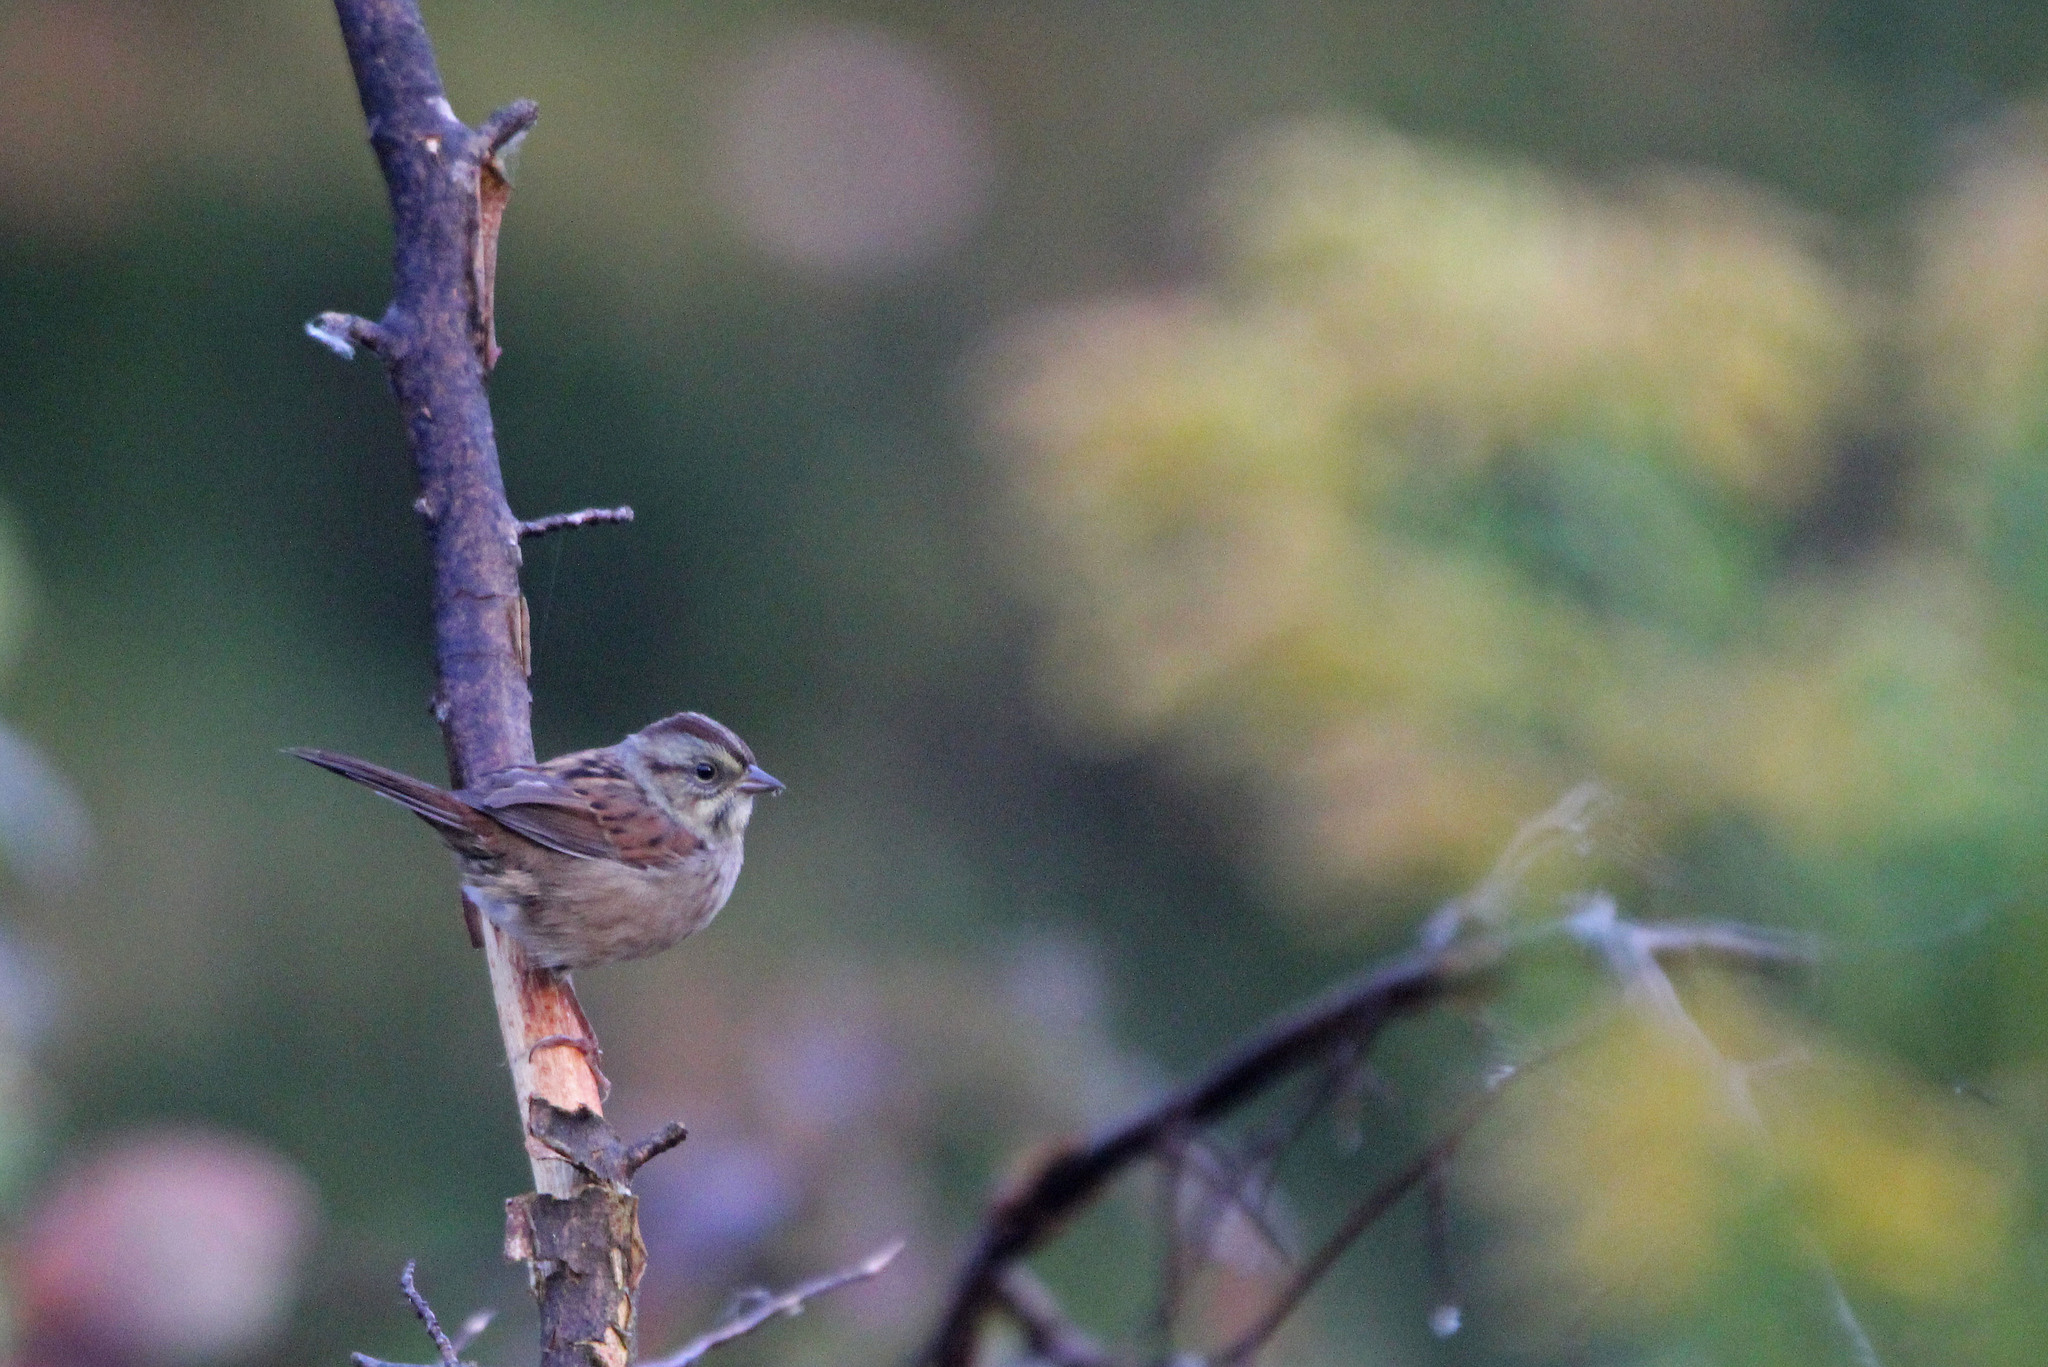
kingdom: Animalia
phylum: Chordata
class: Aves
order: Passeriformes
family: Passerellidae
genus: Melospiza
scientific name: Melospiza georgiana
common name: Swamp sparrow
